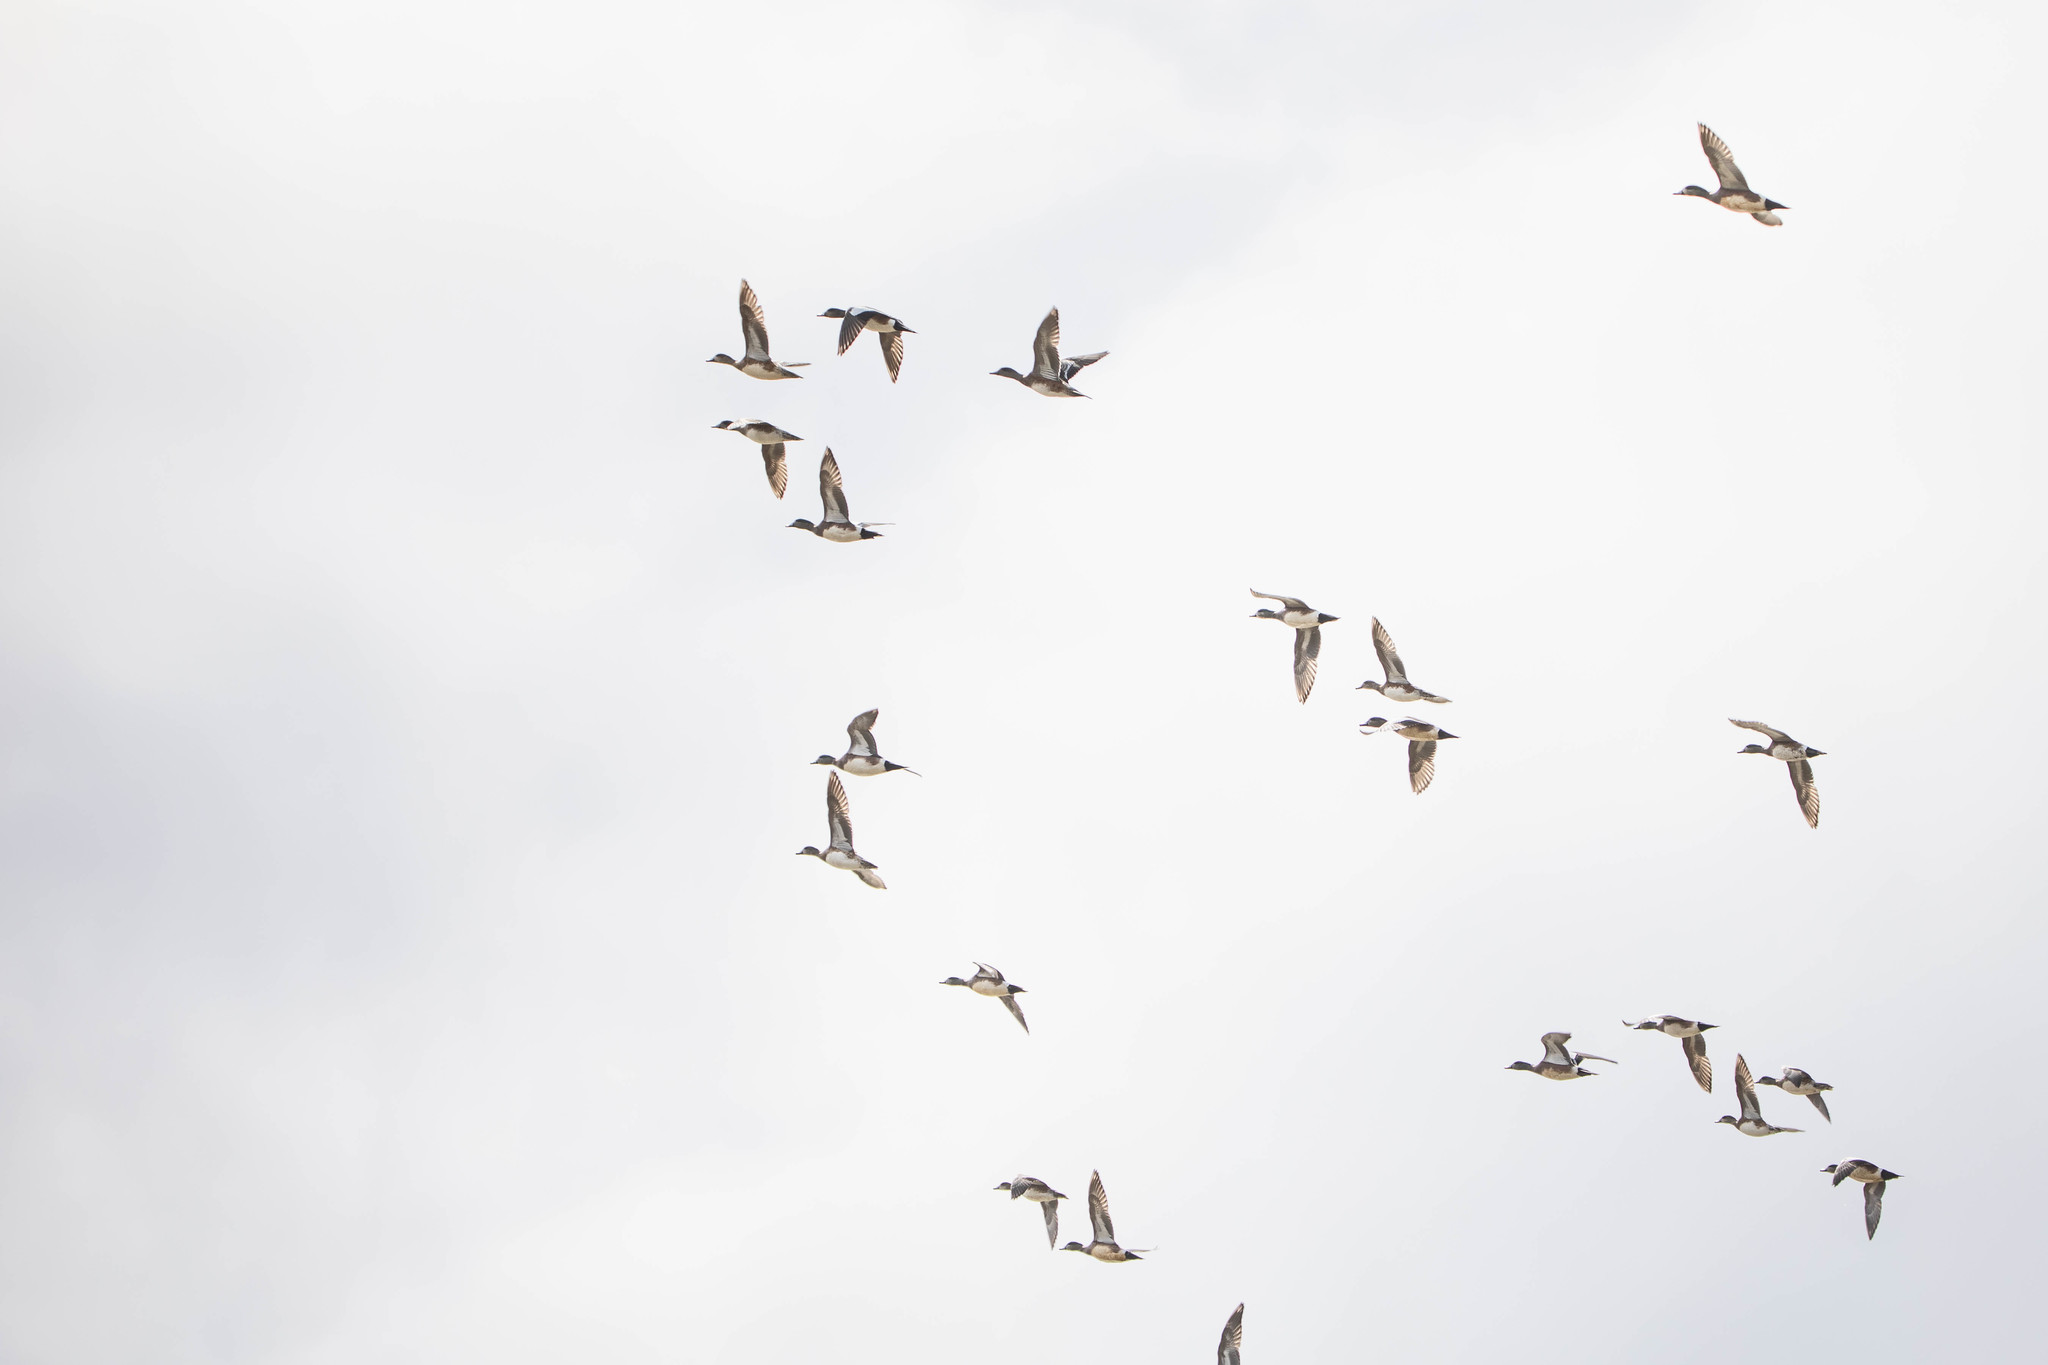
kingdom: Animalia
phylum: Chordata
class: Aves
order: Anseriformes
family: Anatidae
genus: Mareca
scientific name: Mareca americana
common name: American wigeon
